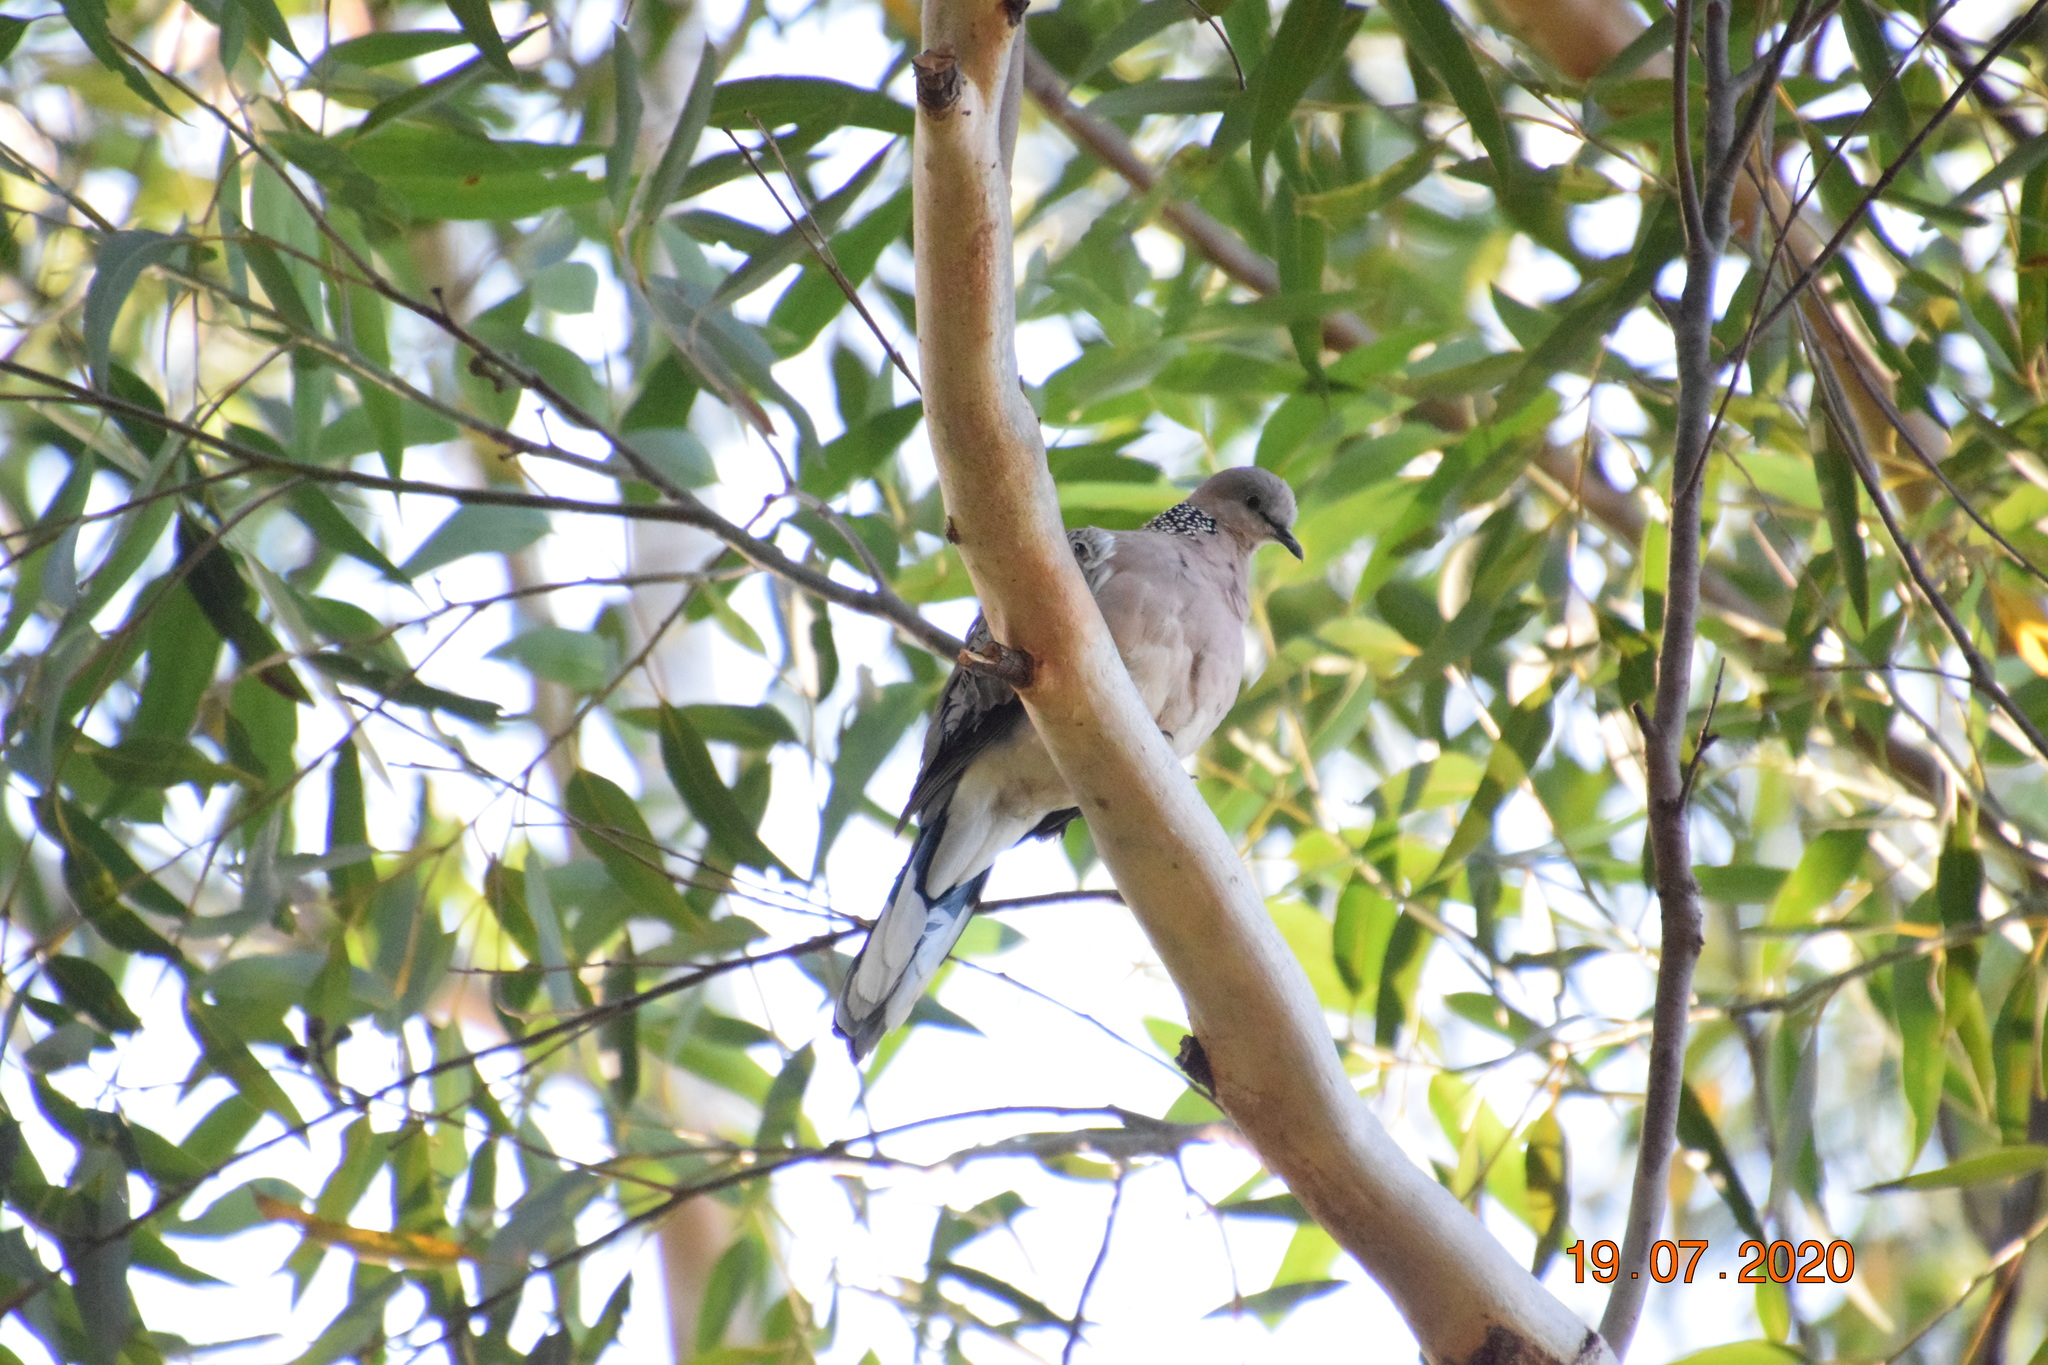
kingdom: Animalia
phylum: Chordata
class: Aves
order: Columbiformes
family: Columbidae
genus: Spilopelia
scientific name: Spilopelia chinensis
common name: Spotted dove
